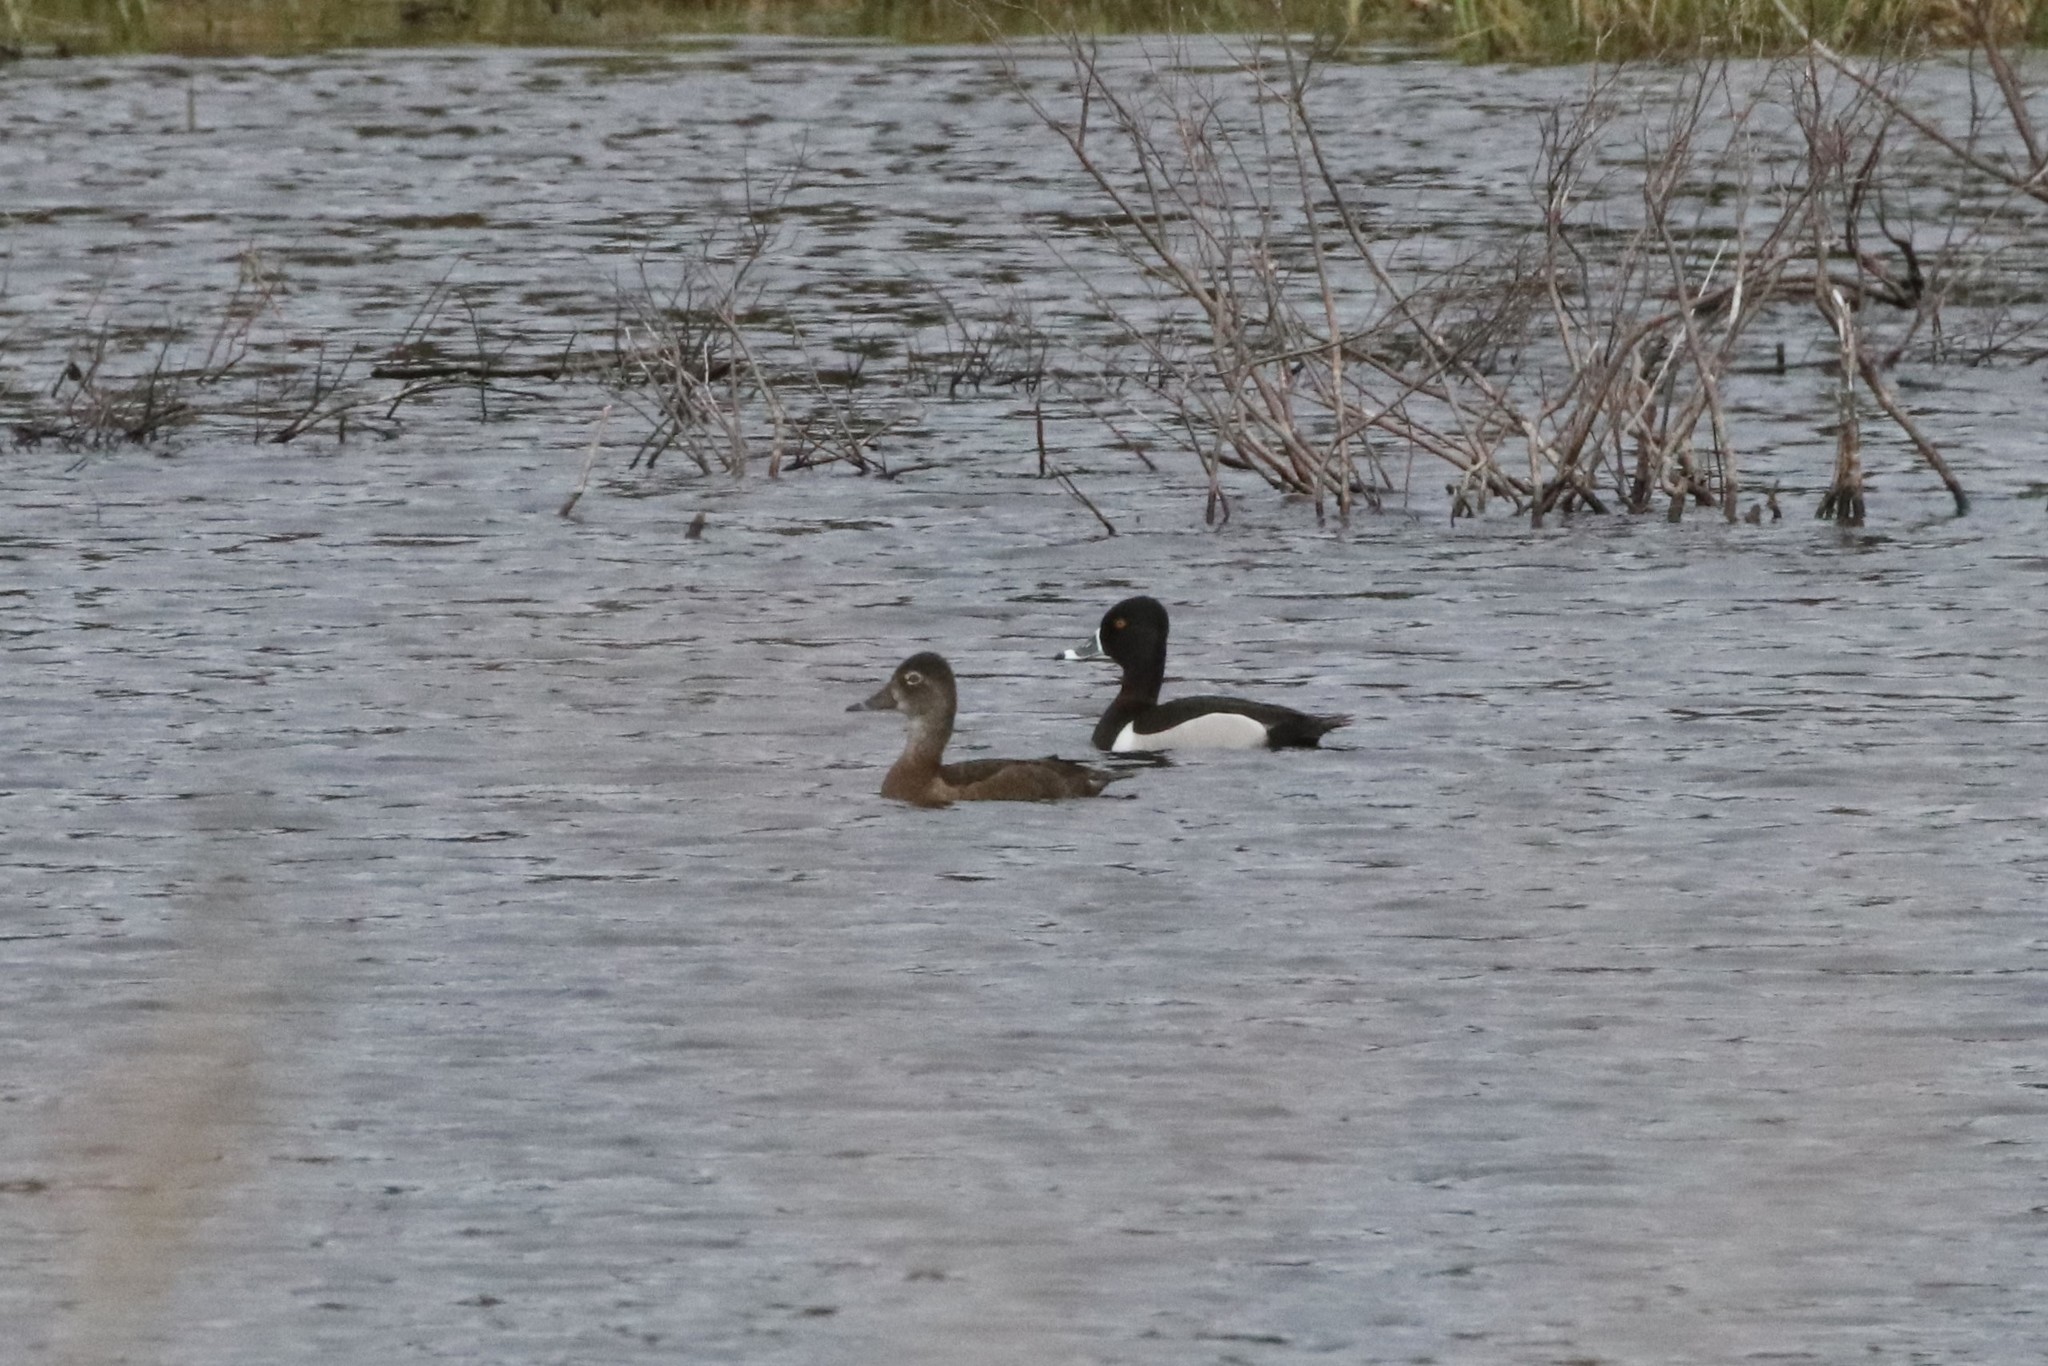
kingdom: Animalia
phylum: Chordata
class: Aves
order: Anseriformes
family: Anatidae
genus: Aythya
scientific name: Aythya collaris
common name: Ring-necked duck
